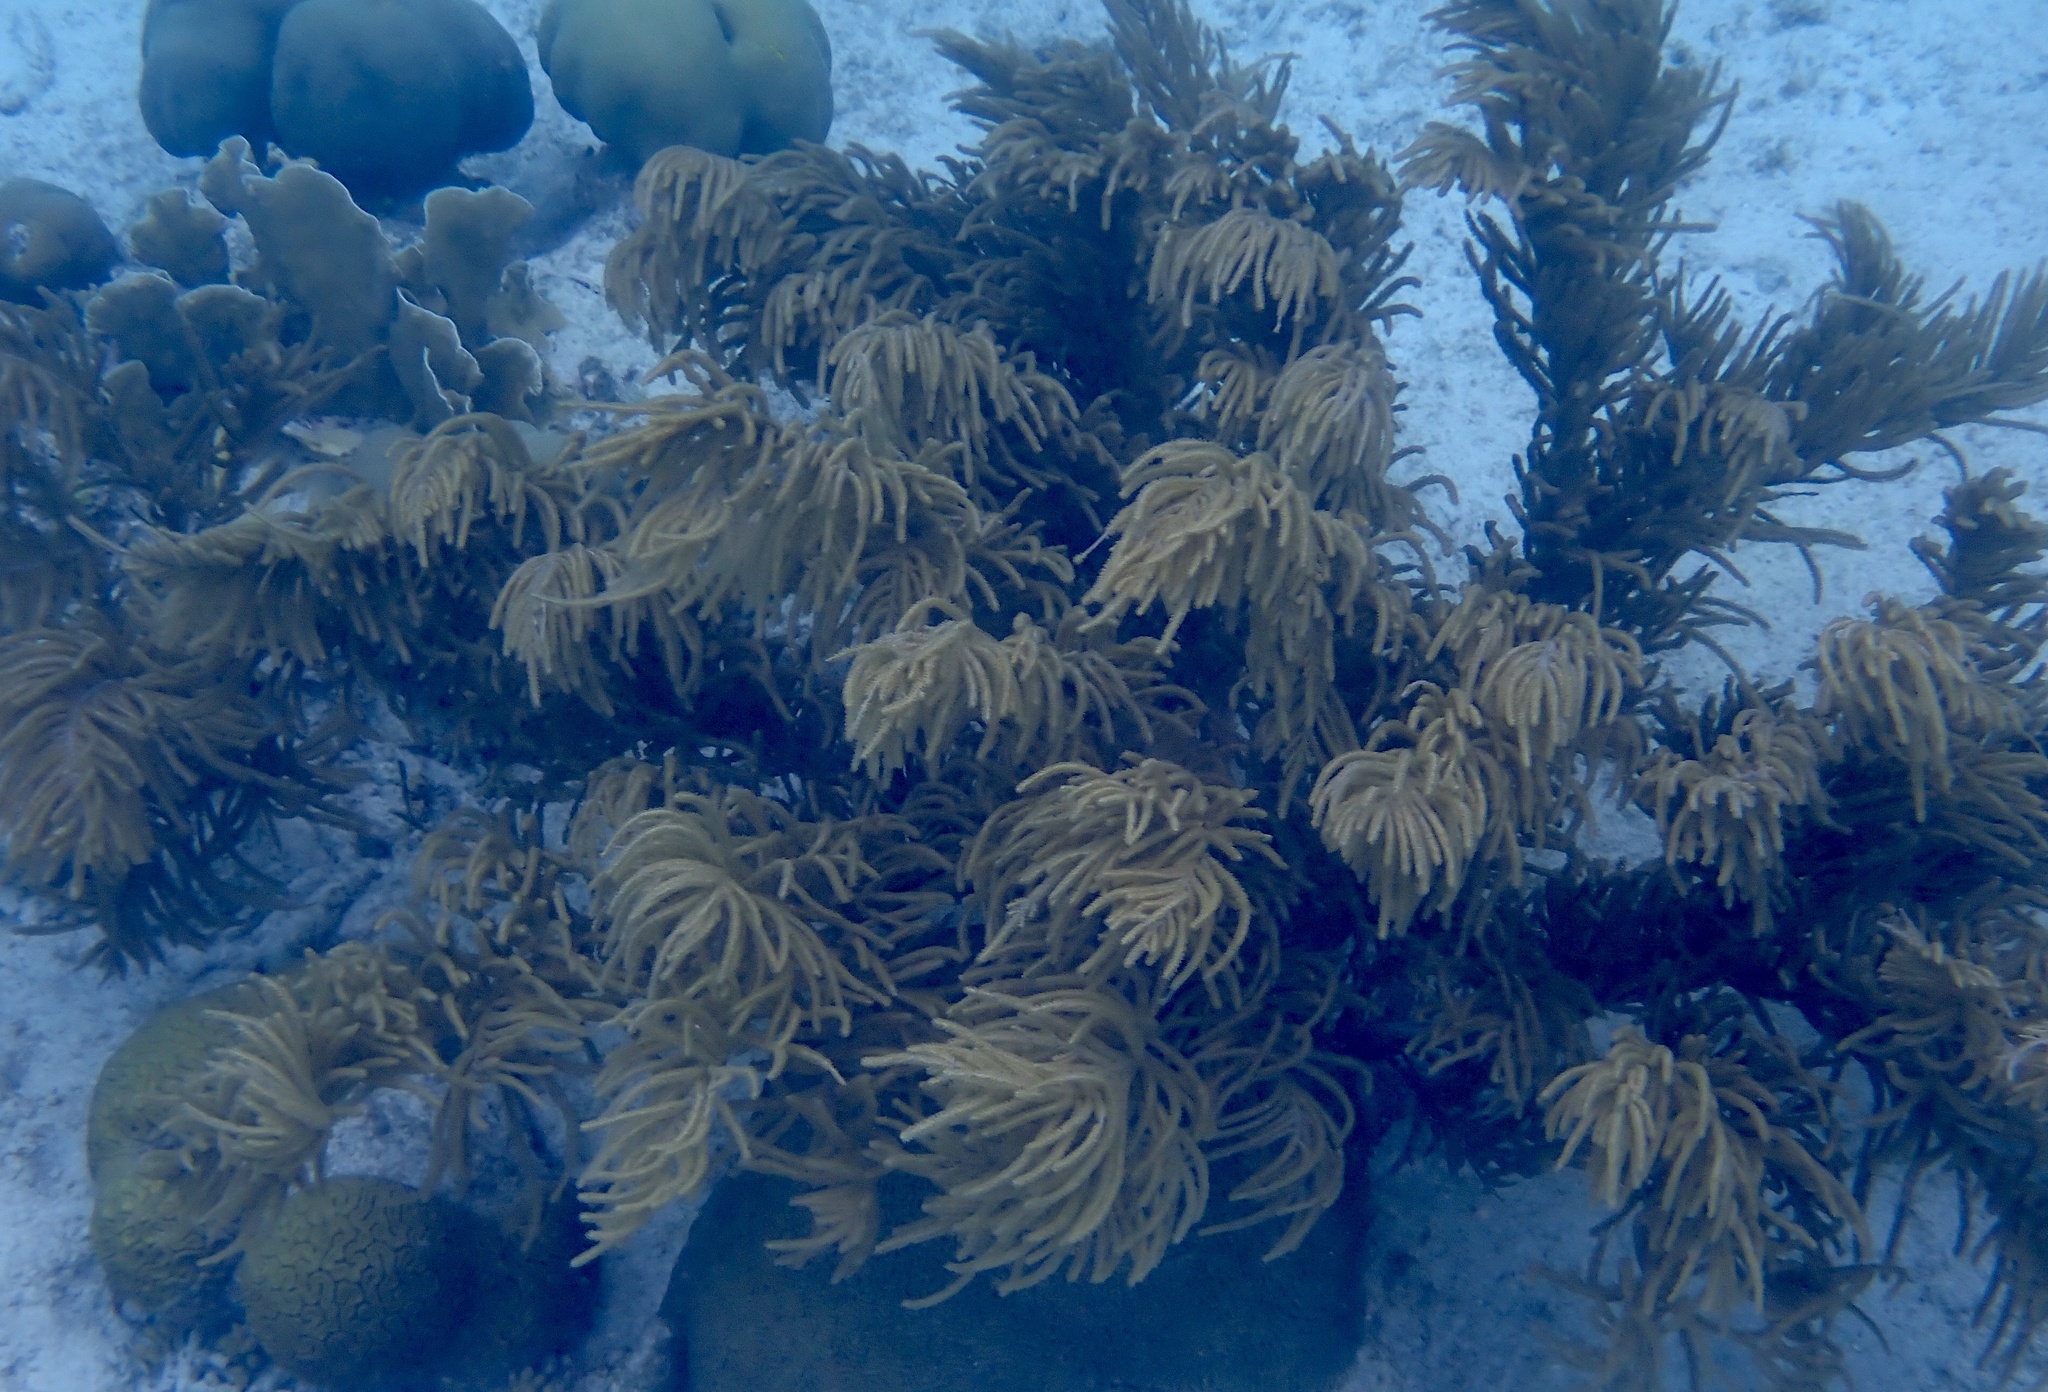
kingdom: Animalia
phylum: Cnidaria
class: Anthozoa
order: Malacalcyonacea
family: Pterogorgiidae
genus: Muriceopsis
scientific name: Muriceopsis flavida
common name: Rough sea plume
